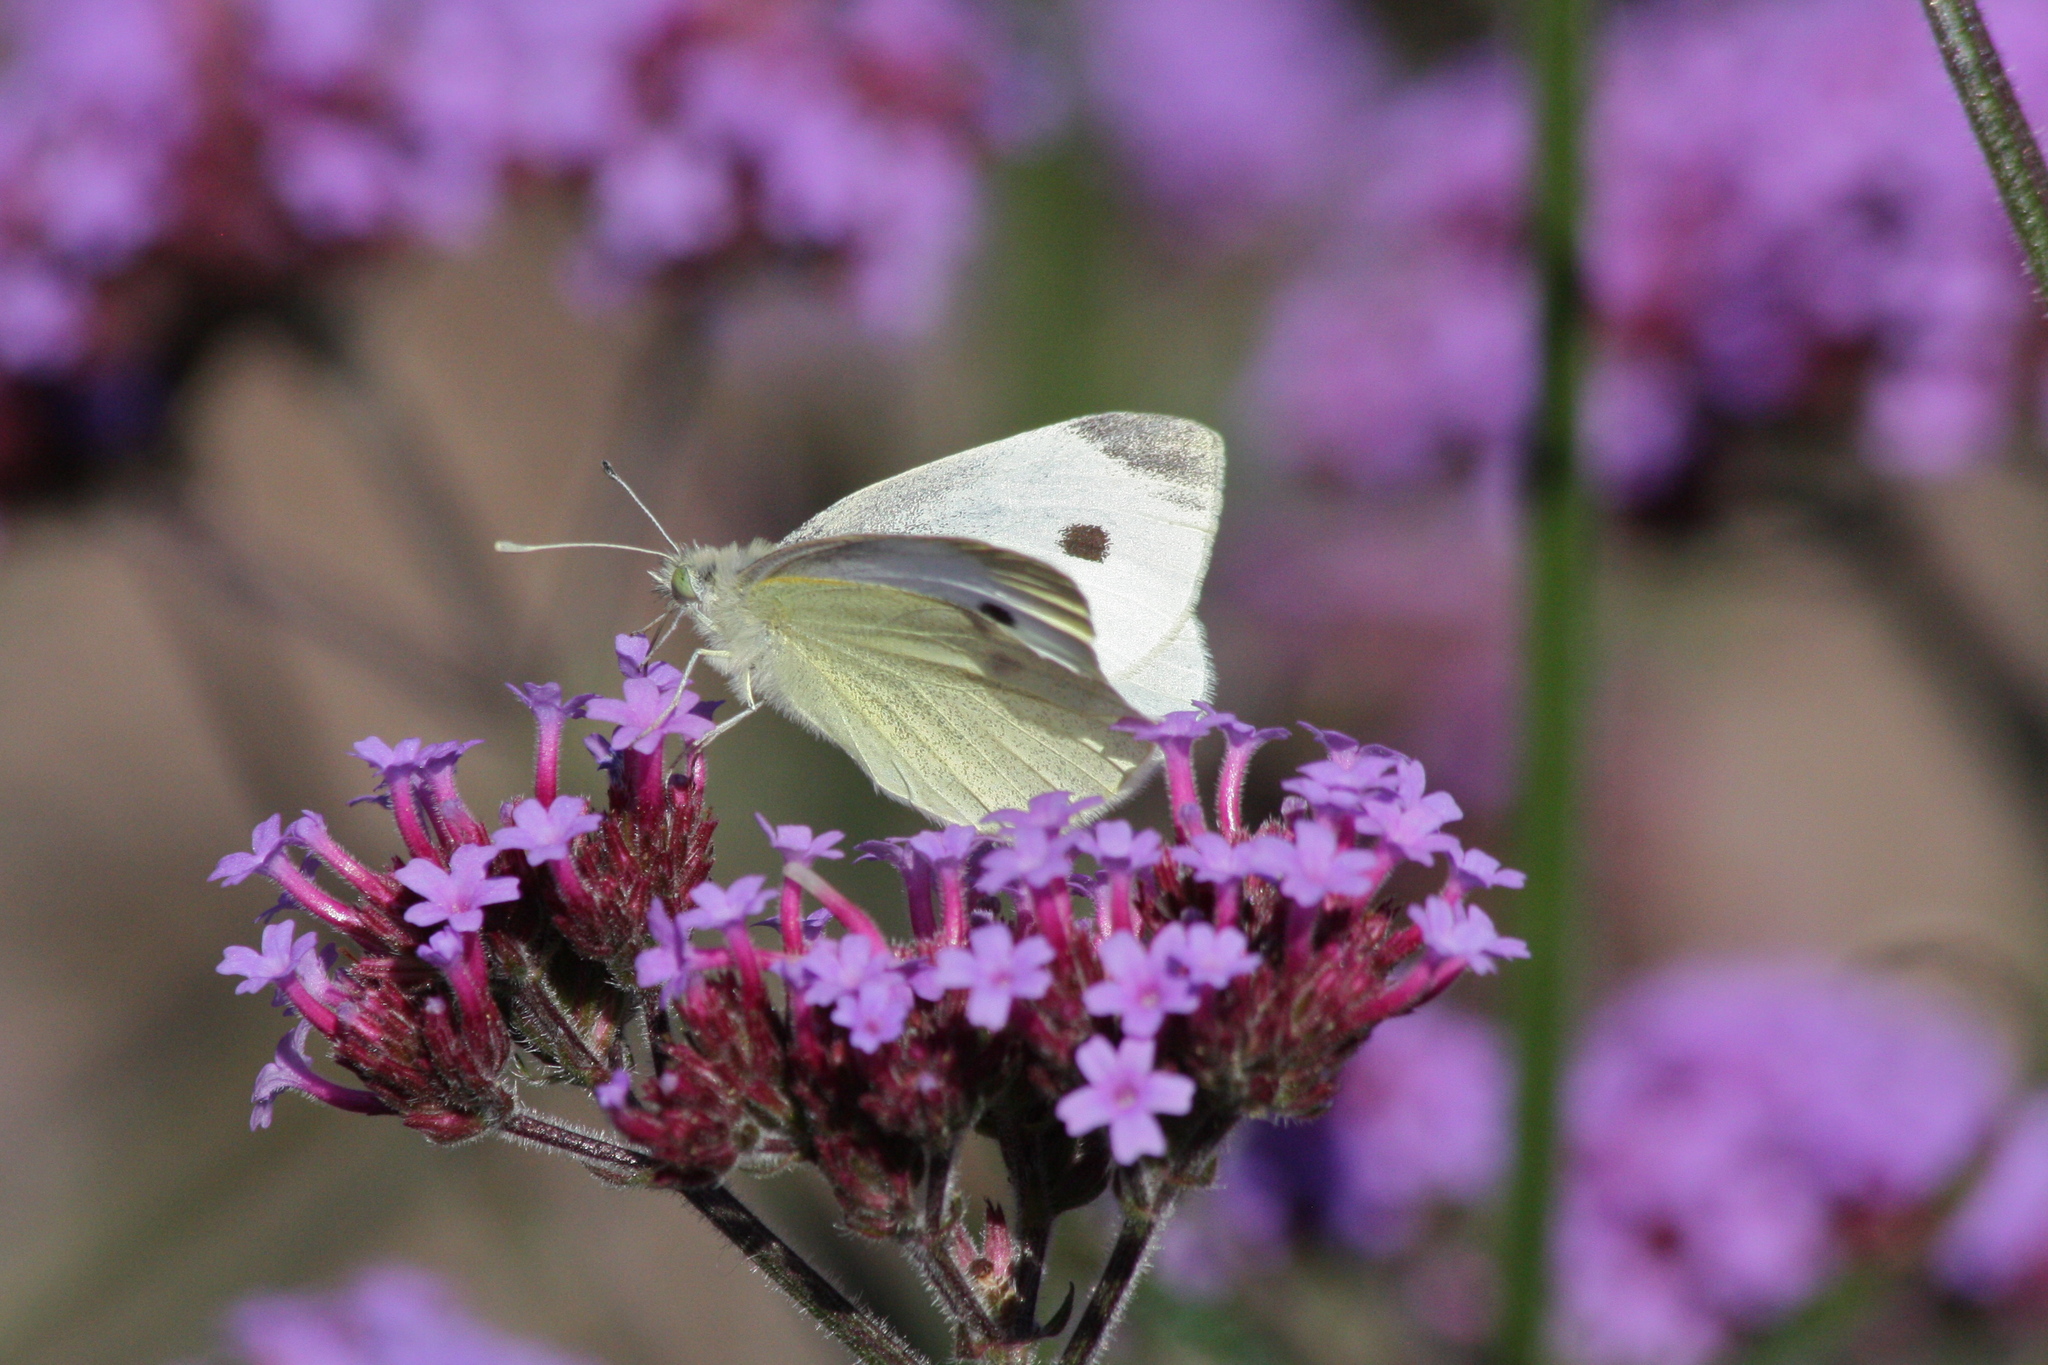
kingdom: Animalia
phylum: Arthropoda
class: Insecta
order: Lepidoptera
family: Pieridae
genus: Pieris
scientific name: Pieris rapae
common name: Small white
